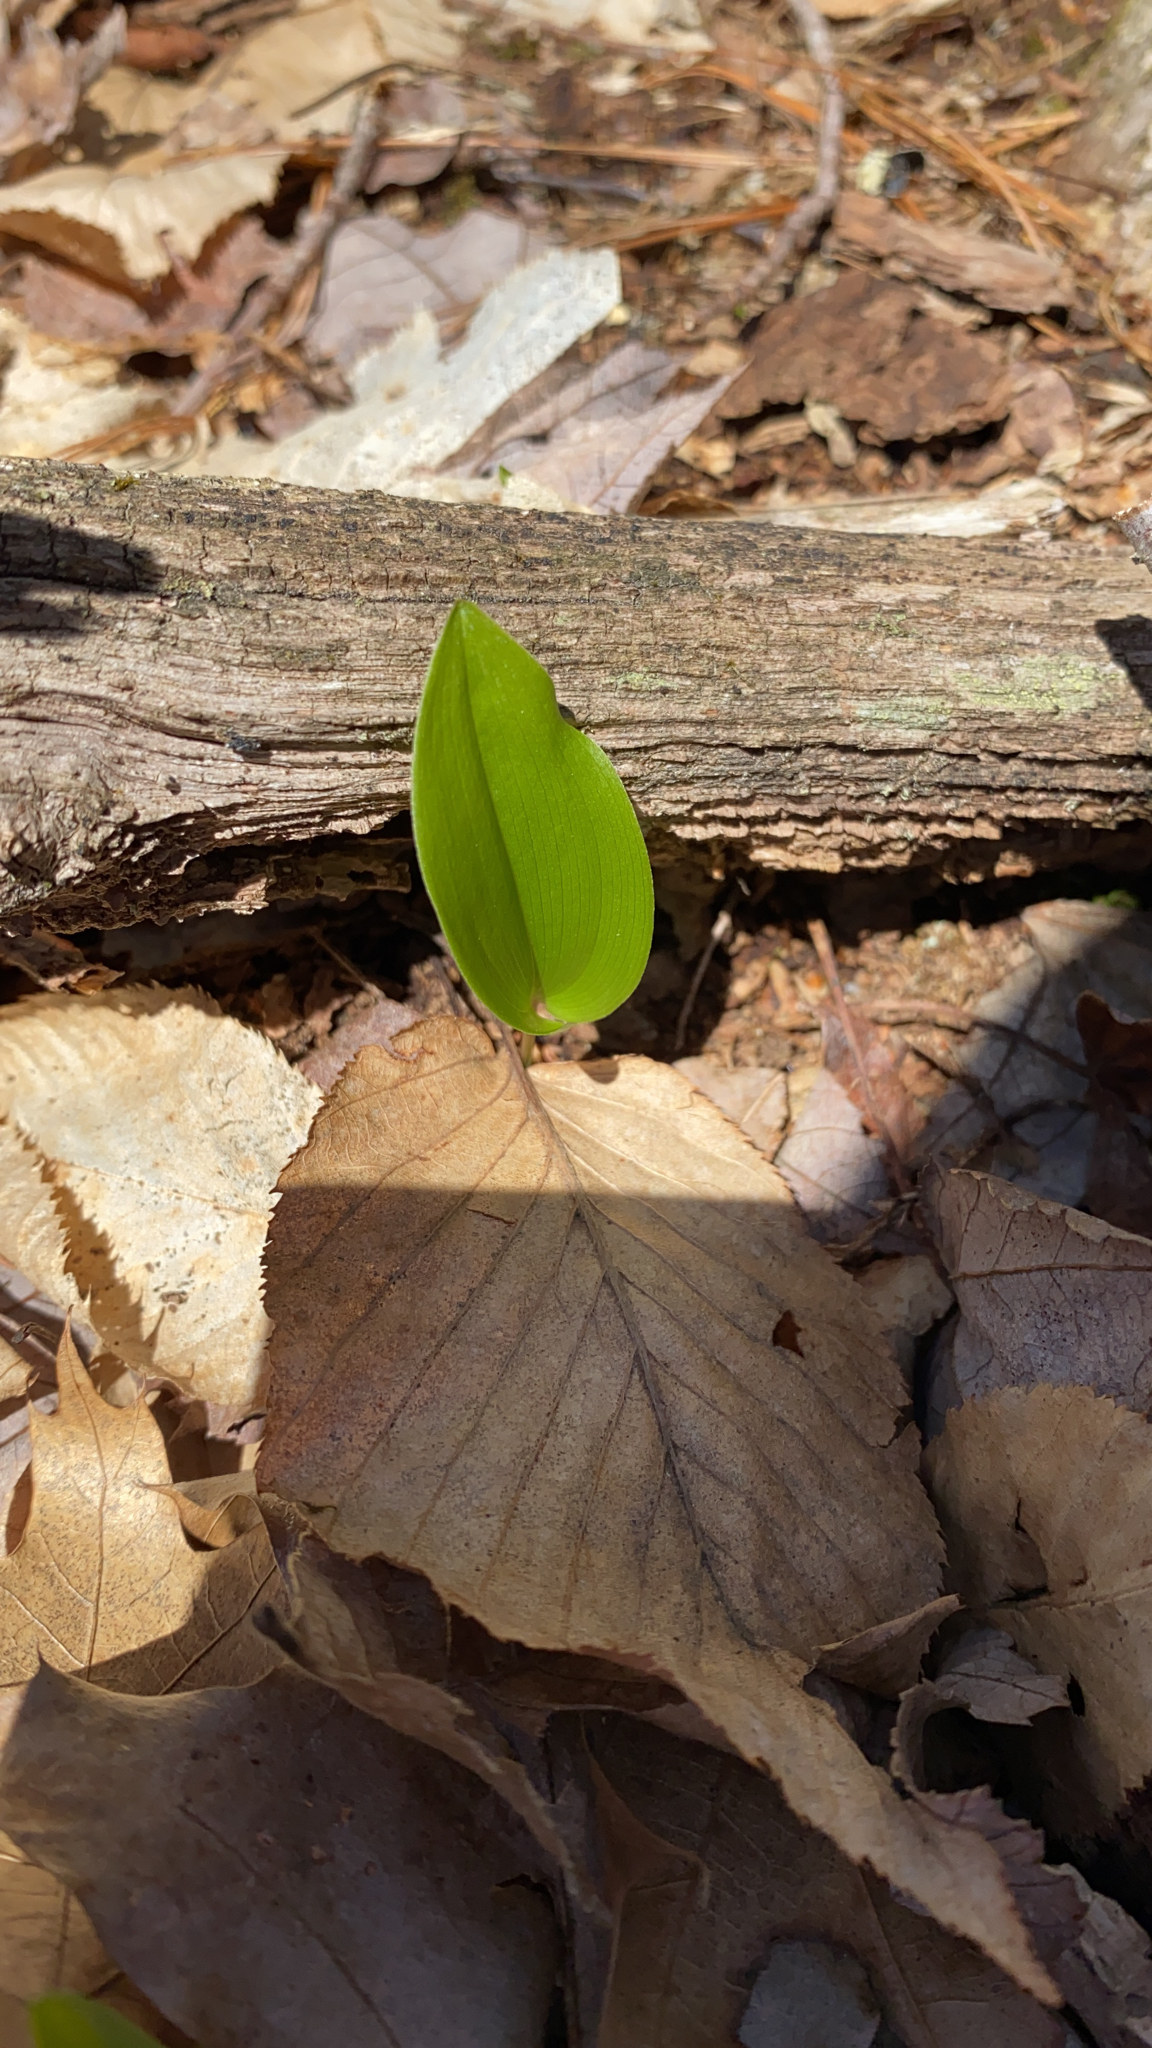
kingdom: Plantae
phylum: Tracheophyta
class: Liliopsida
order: Asparagales
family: Asparagaceae
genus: Maianthemum
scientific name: Maianthemum canadense
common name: False lily-of-the-valley
